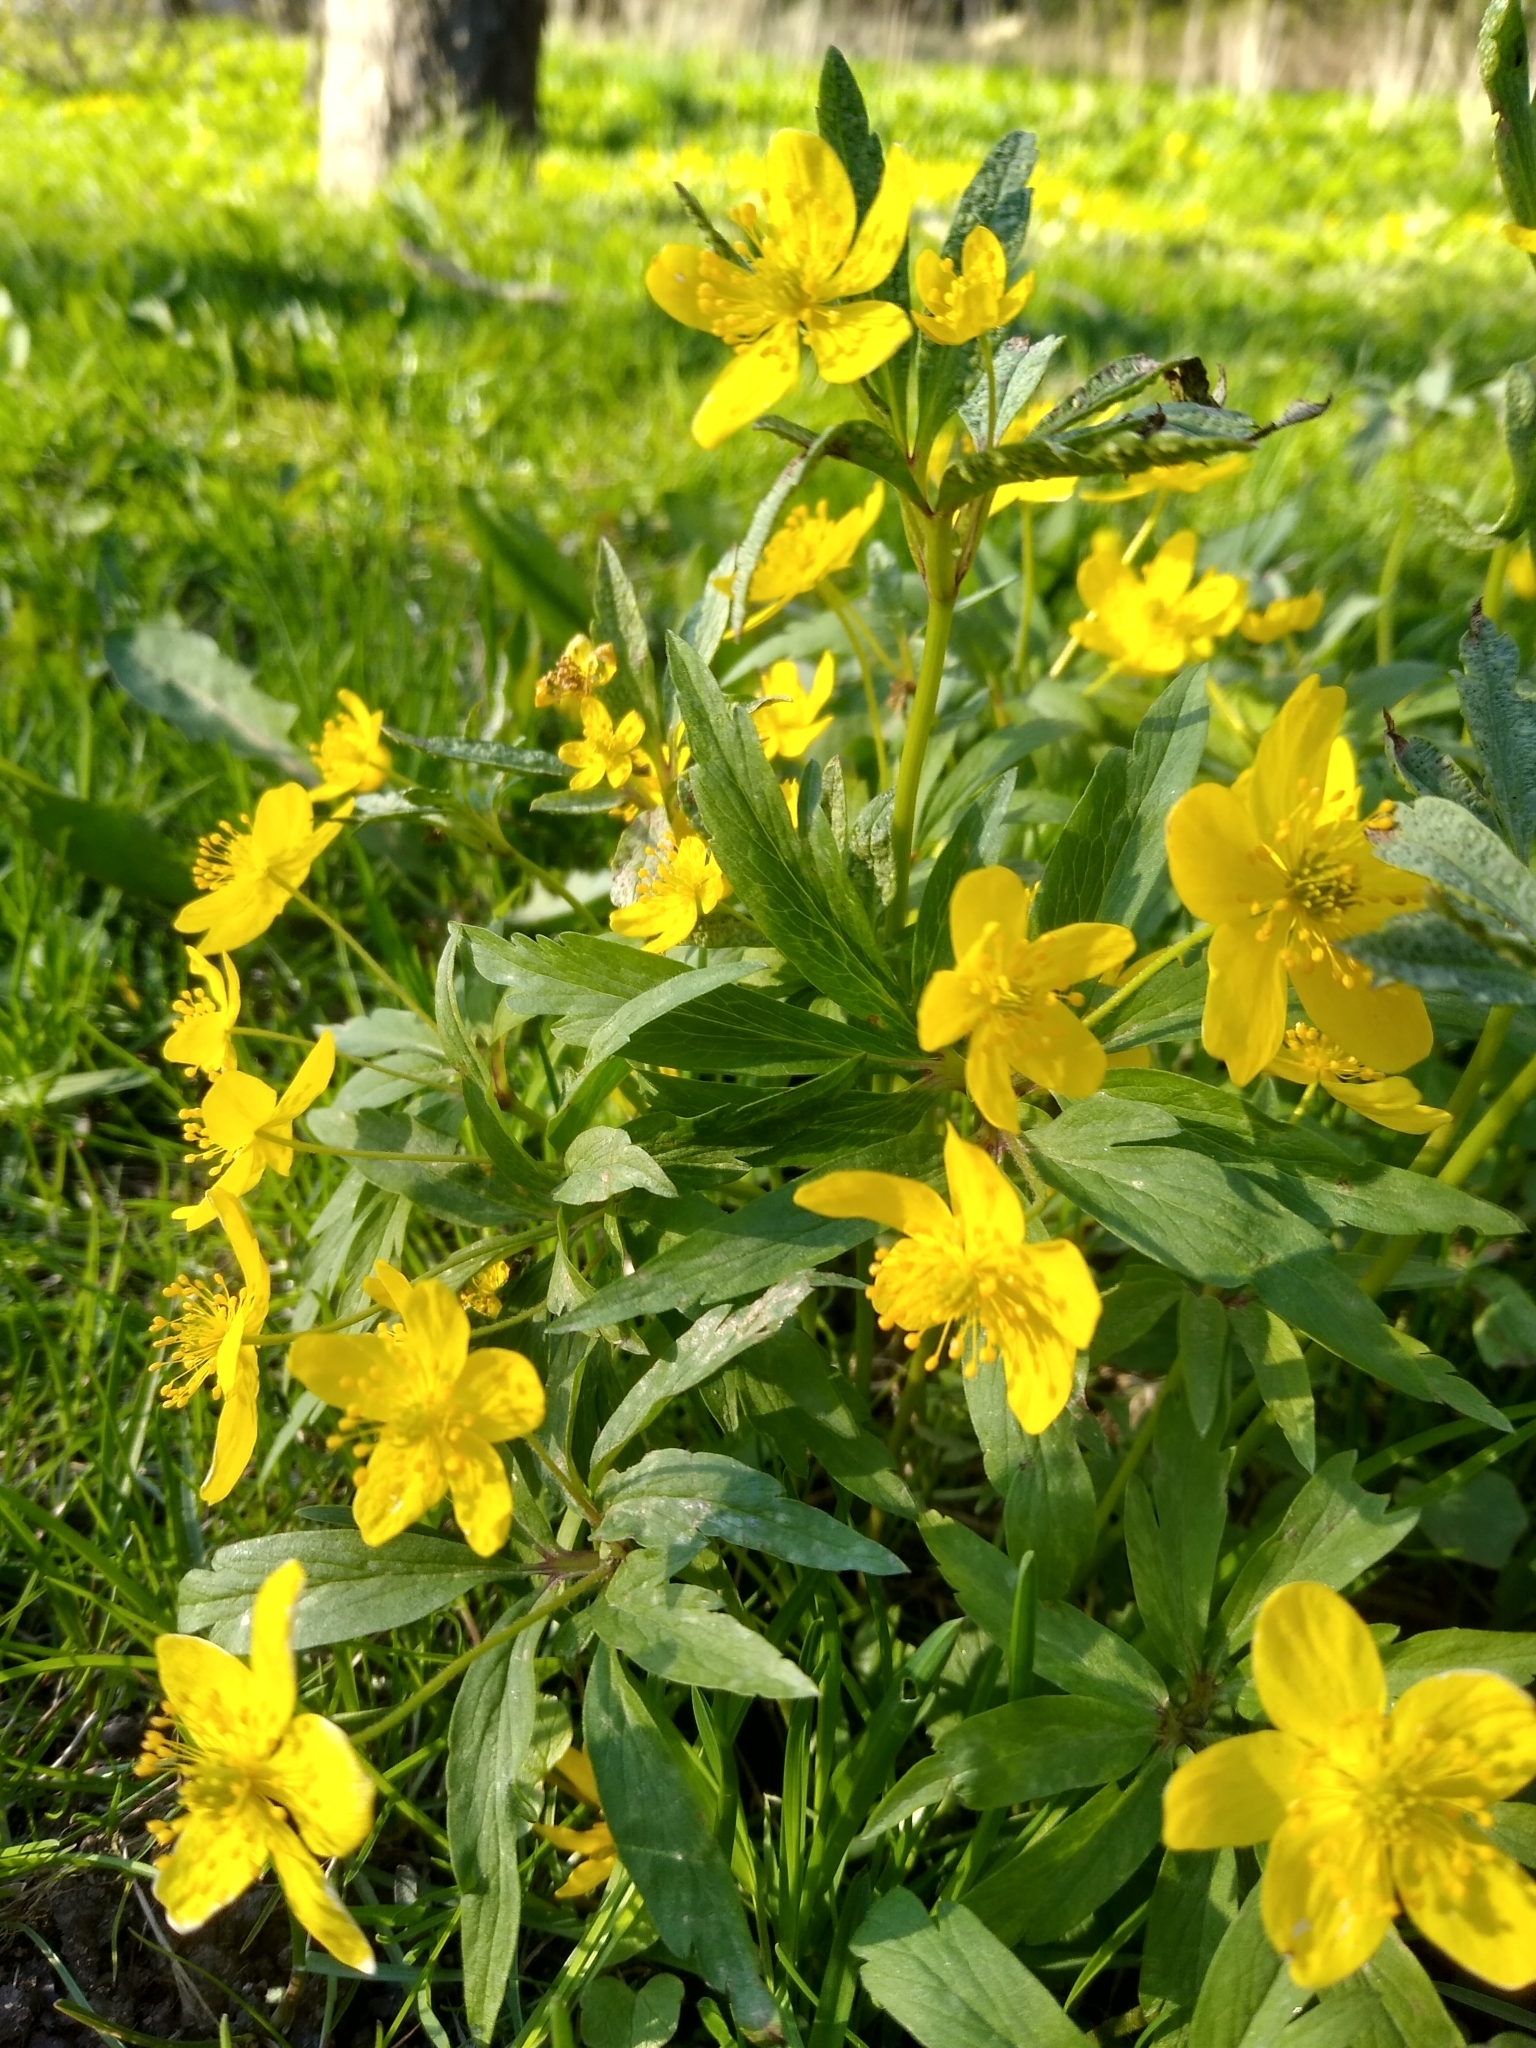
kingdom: Plantae
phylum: Tracheophyta
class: Magnoliopsida
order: Ranunculales
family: Ranunculaceae
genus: Anemone
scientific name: Anemone ranunculoides
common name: Yellow anemone
